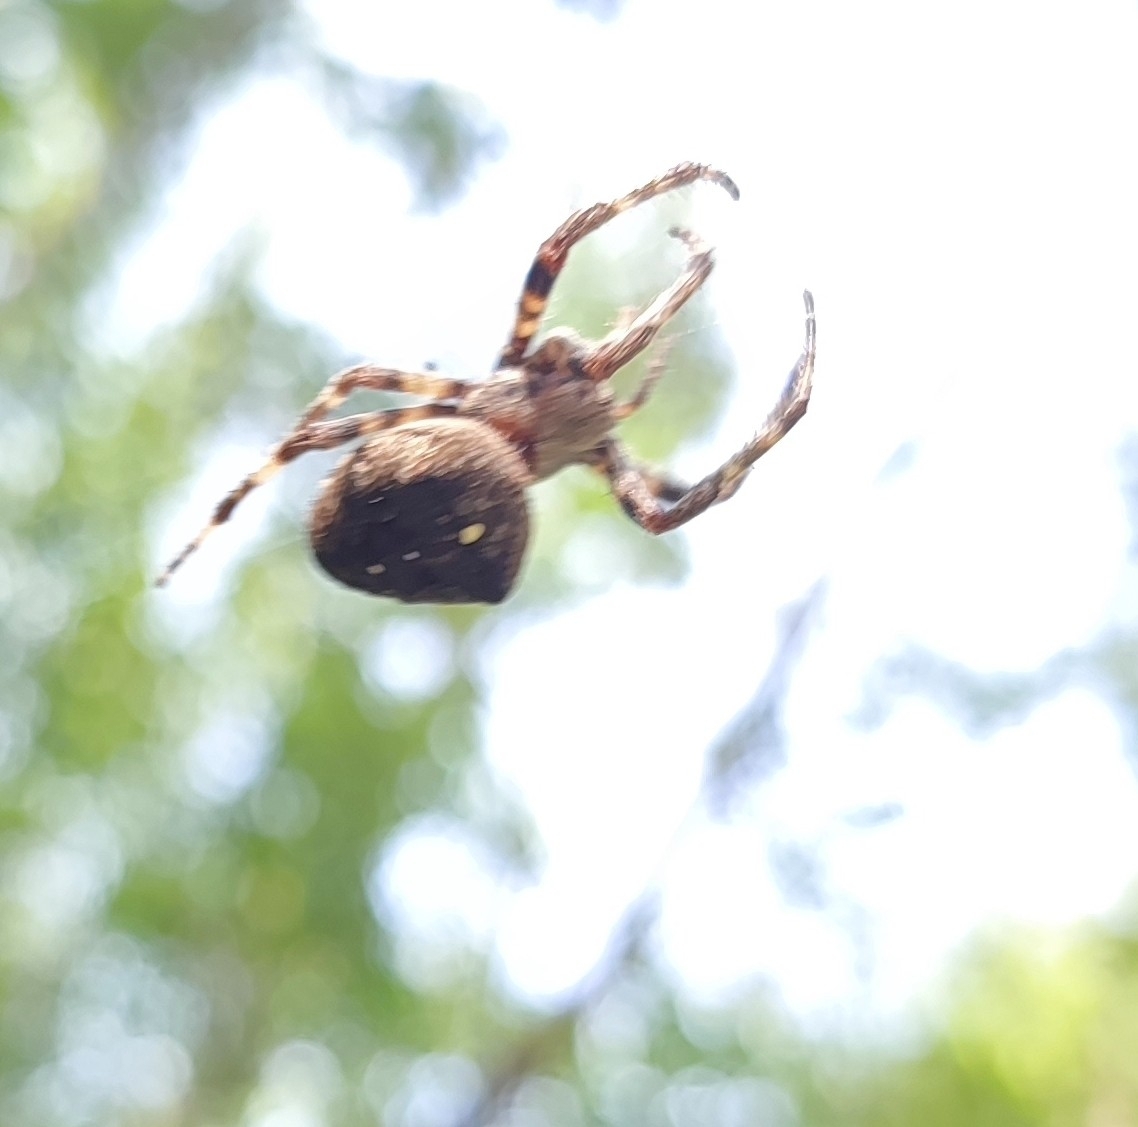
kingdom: Animalia
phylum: Arthropoda
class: Arachnida
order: Araneae
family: Araneidae
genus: Araneus
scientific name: Araneus angulatus
